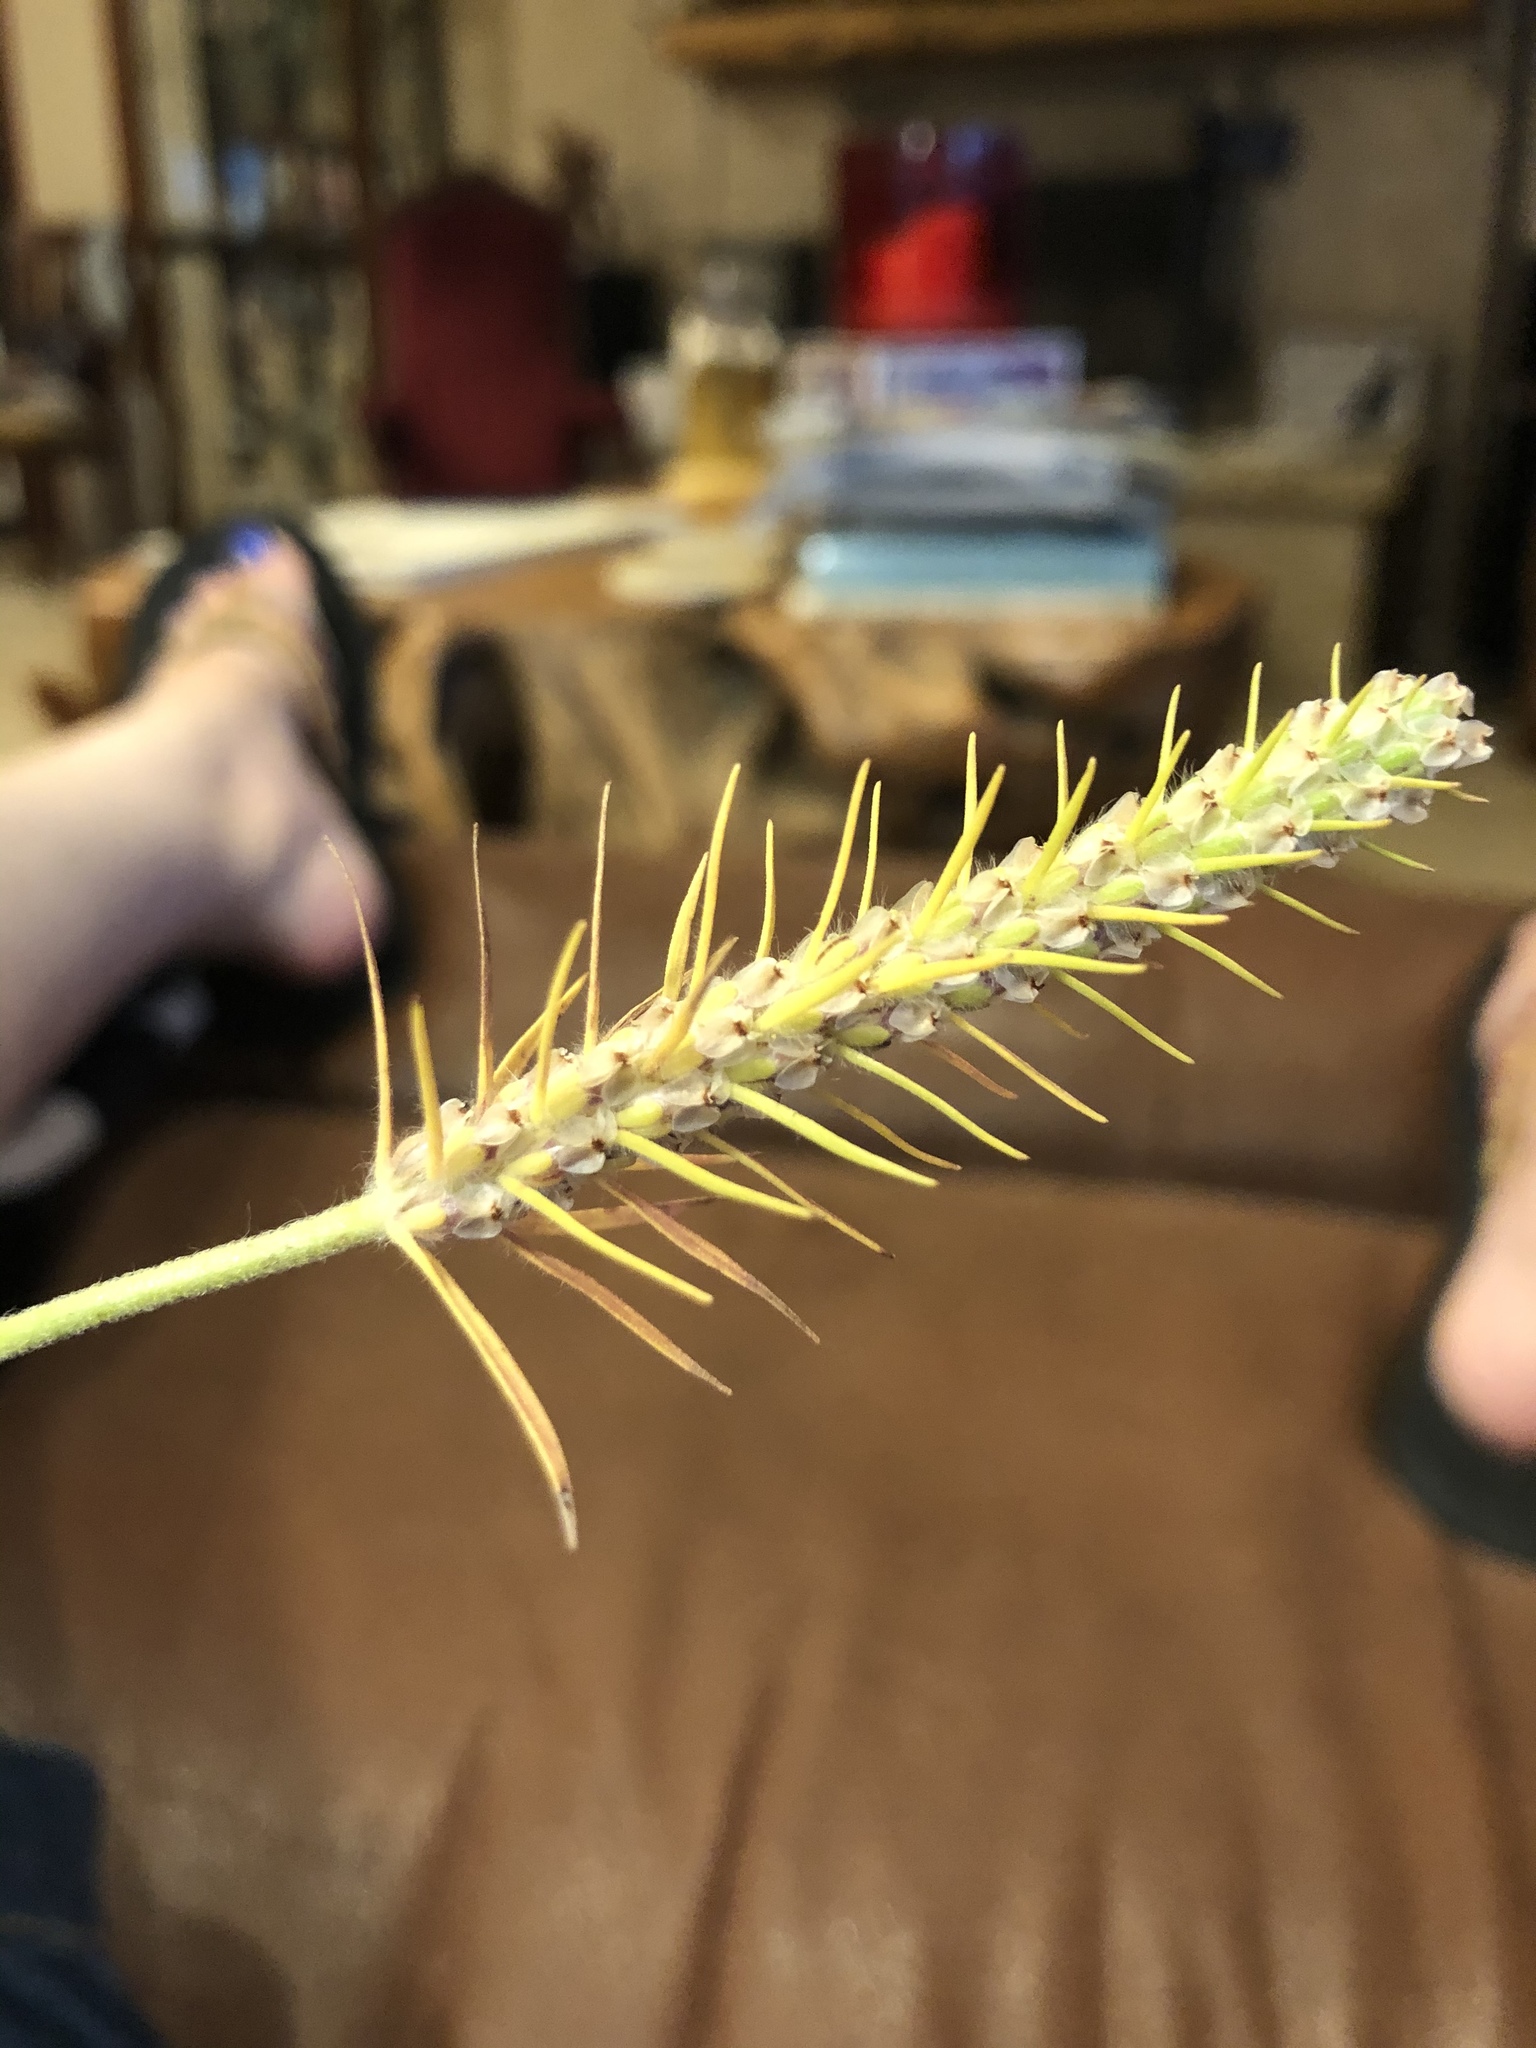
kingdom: Plantae
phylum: Tracheophyta
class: Magnoliopsida
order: Lamiales
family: Plantaginaceae
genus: Plantago
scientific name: Plantago aristata
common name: Bracted plantain
